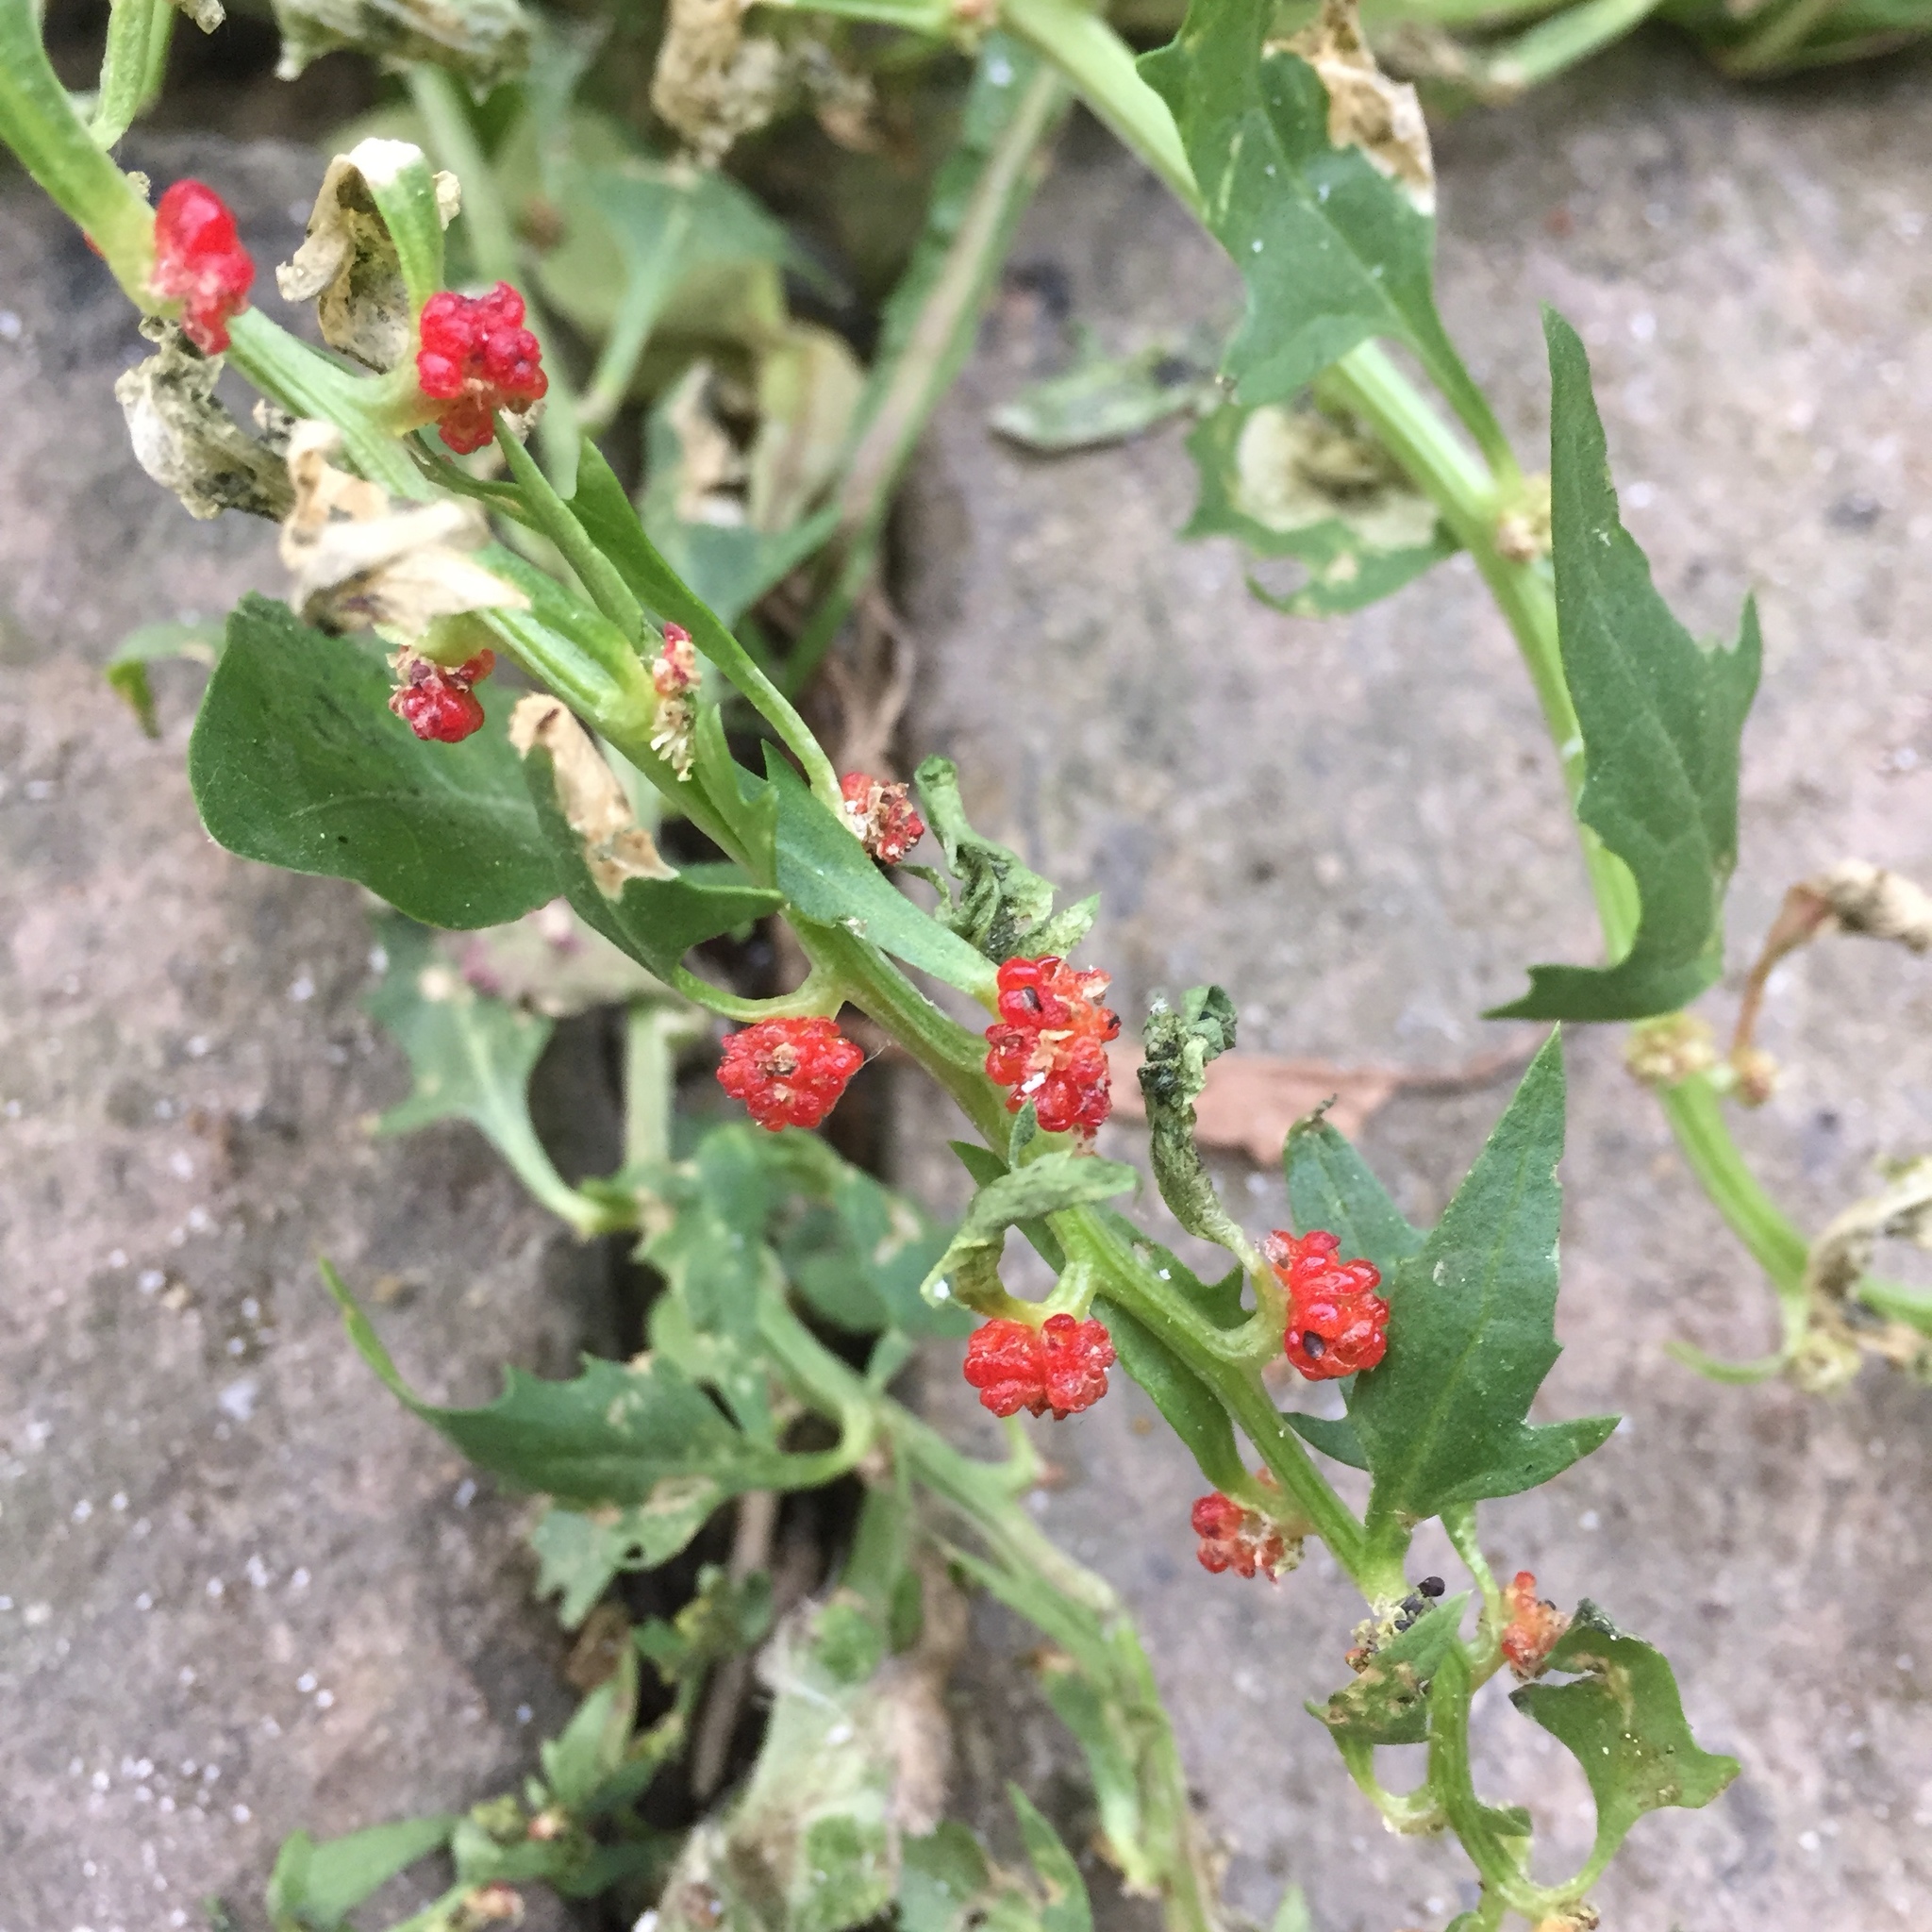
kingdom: Plantae
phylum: Tracheophyta
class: Magnoliopsida
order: Caryophyllales
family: Amaranthaceae
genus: Blitum
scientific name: Blitum capitatum
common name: Strawberry-blight
